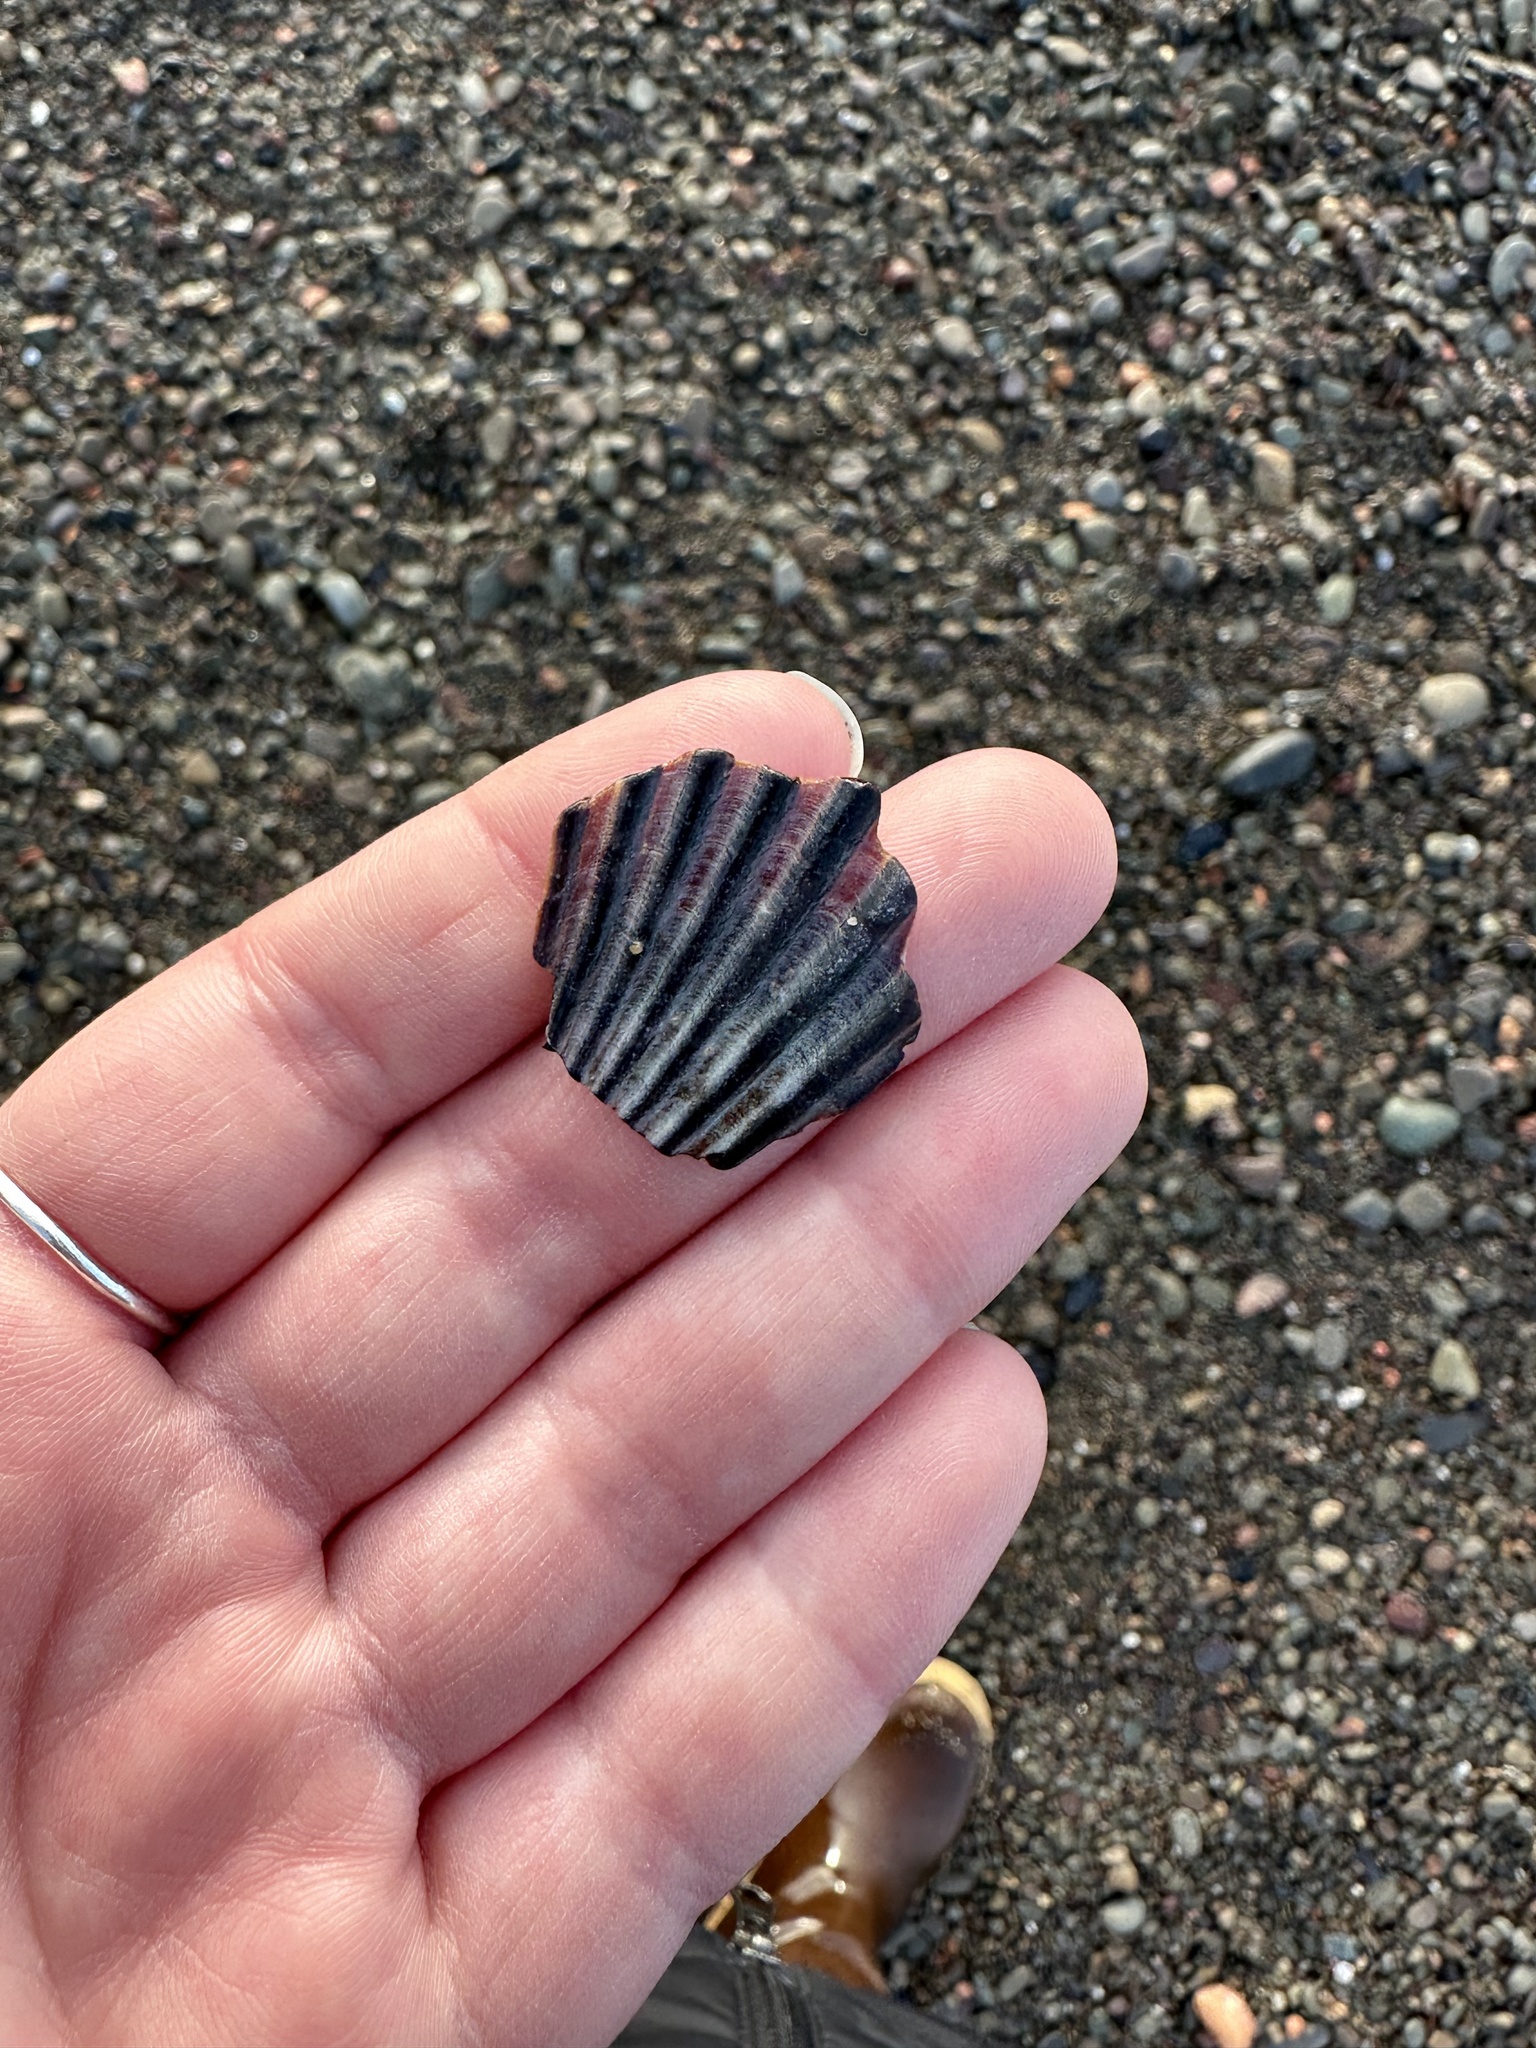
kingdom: Animalia
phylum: Mollusca
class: Bivalvia
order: Pectinida
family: Pectinidae
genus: Argopecten
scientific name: Argopecten irradians
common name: Atlantic bay scallop
